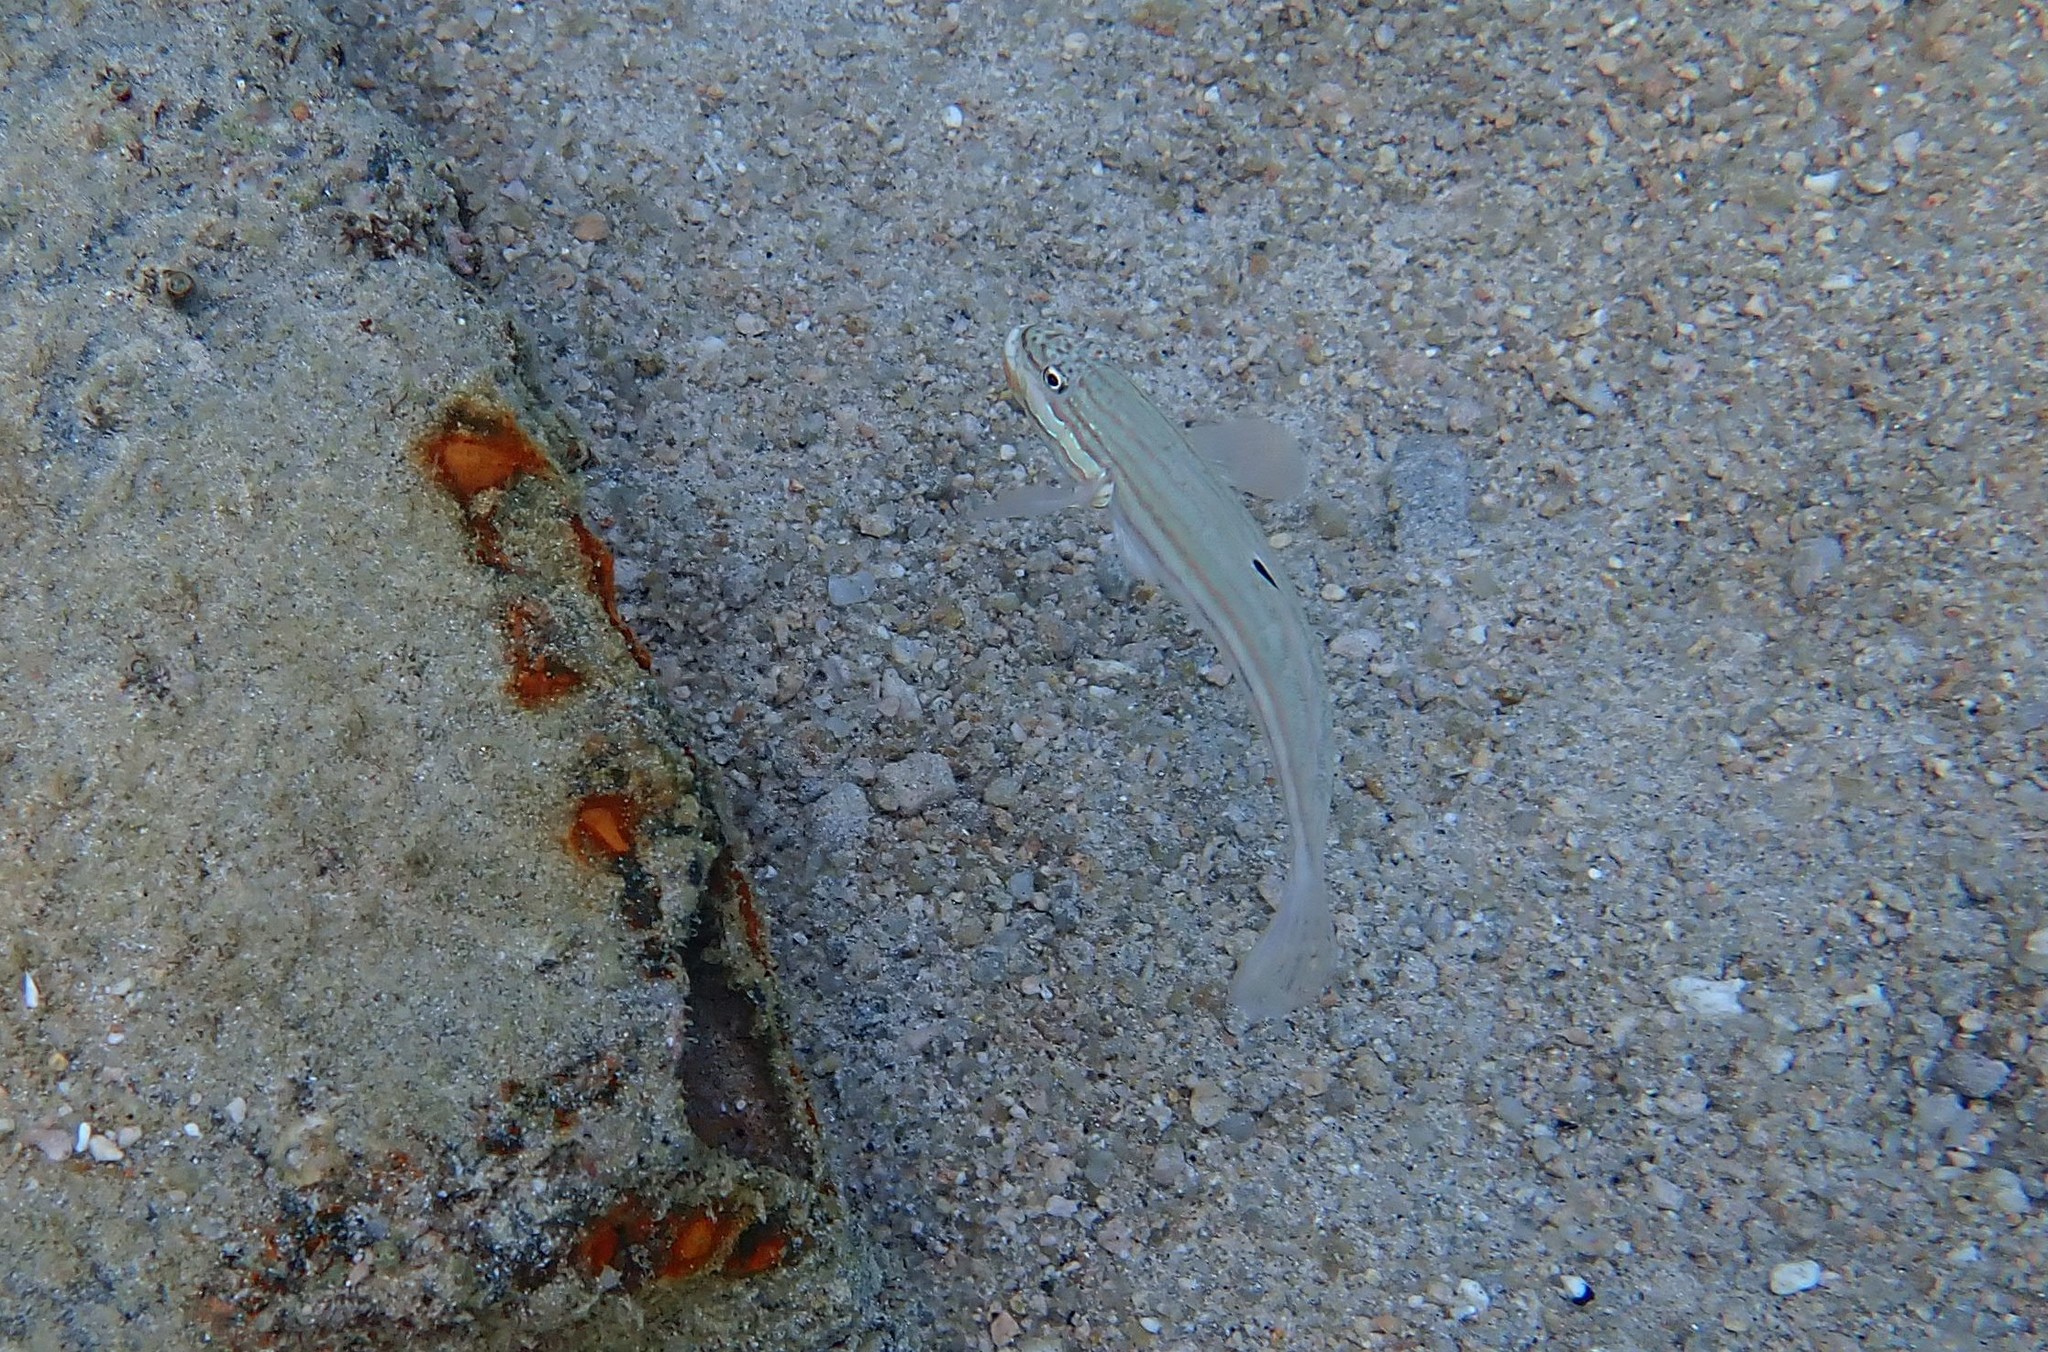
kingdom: Animalia
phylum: Chordata
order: Perciformes
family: Gobiidae
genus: Valenciennea
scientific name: Valenciennea muralis
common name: Mural goby
